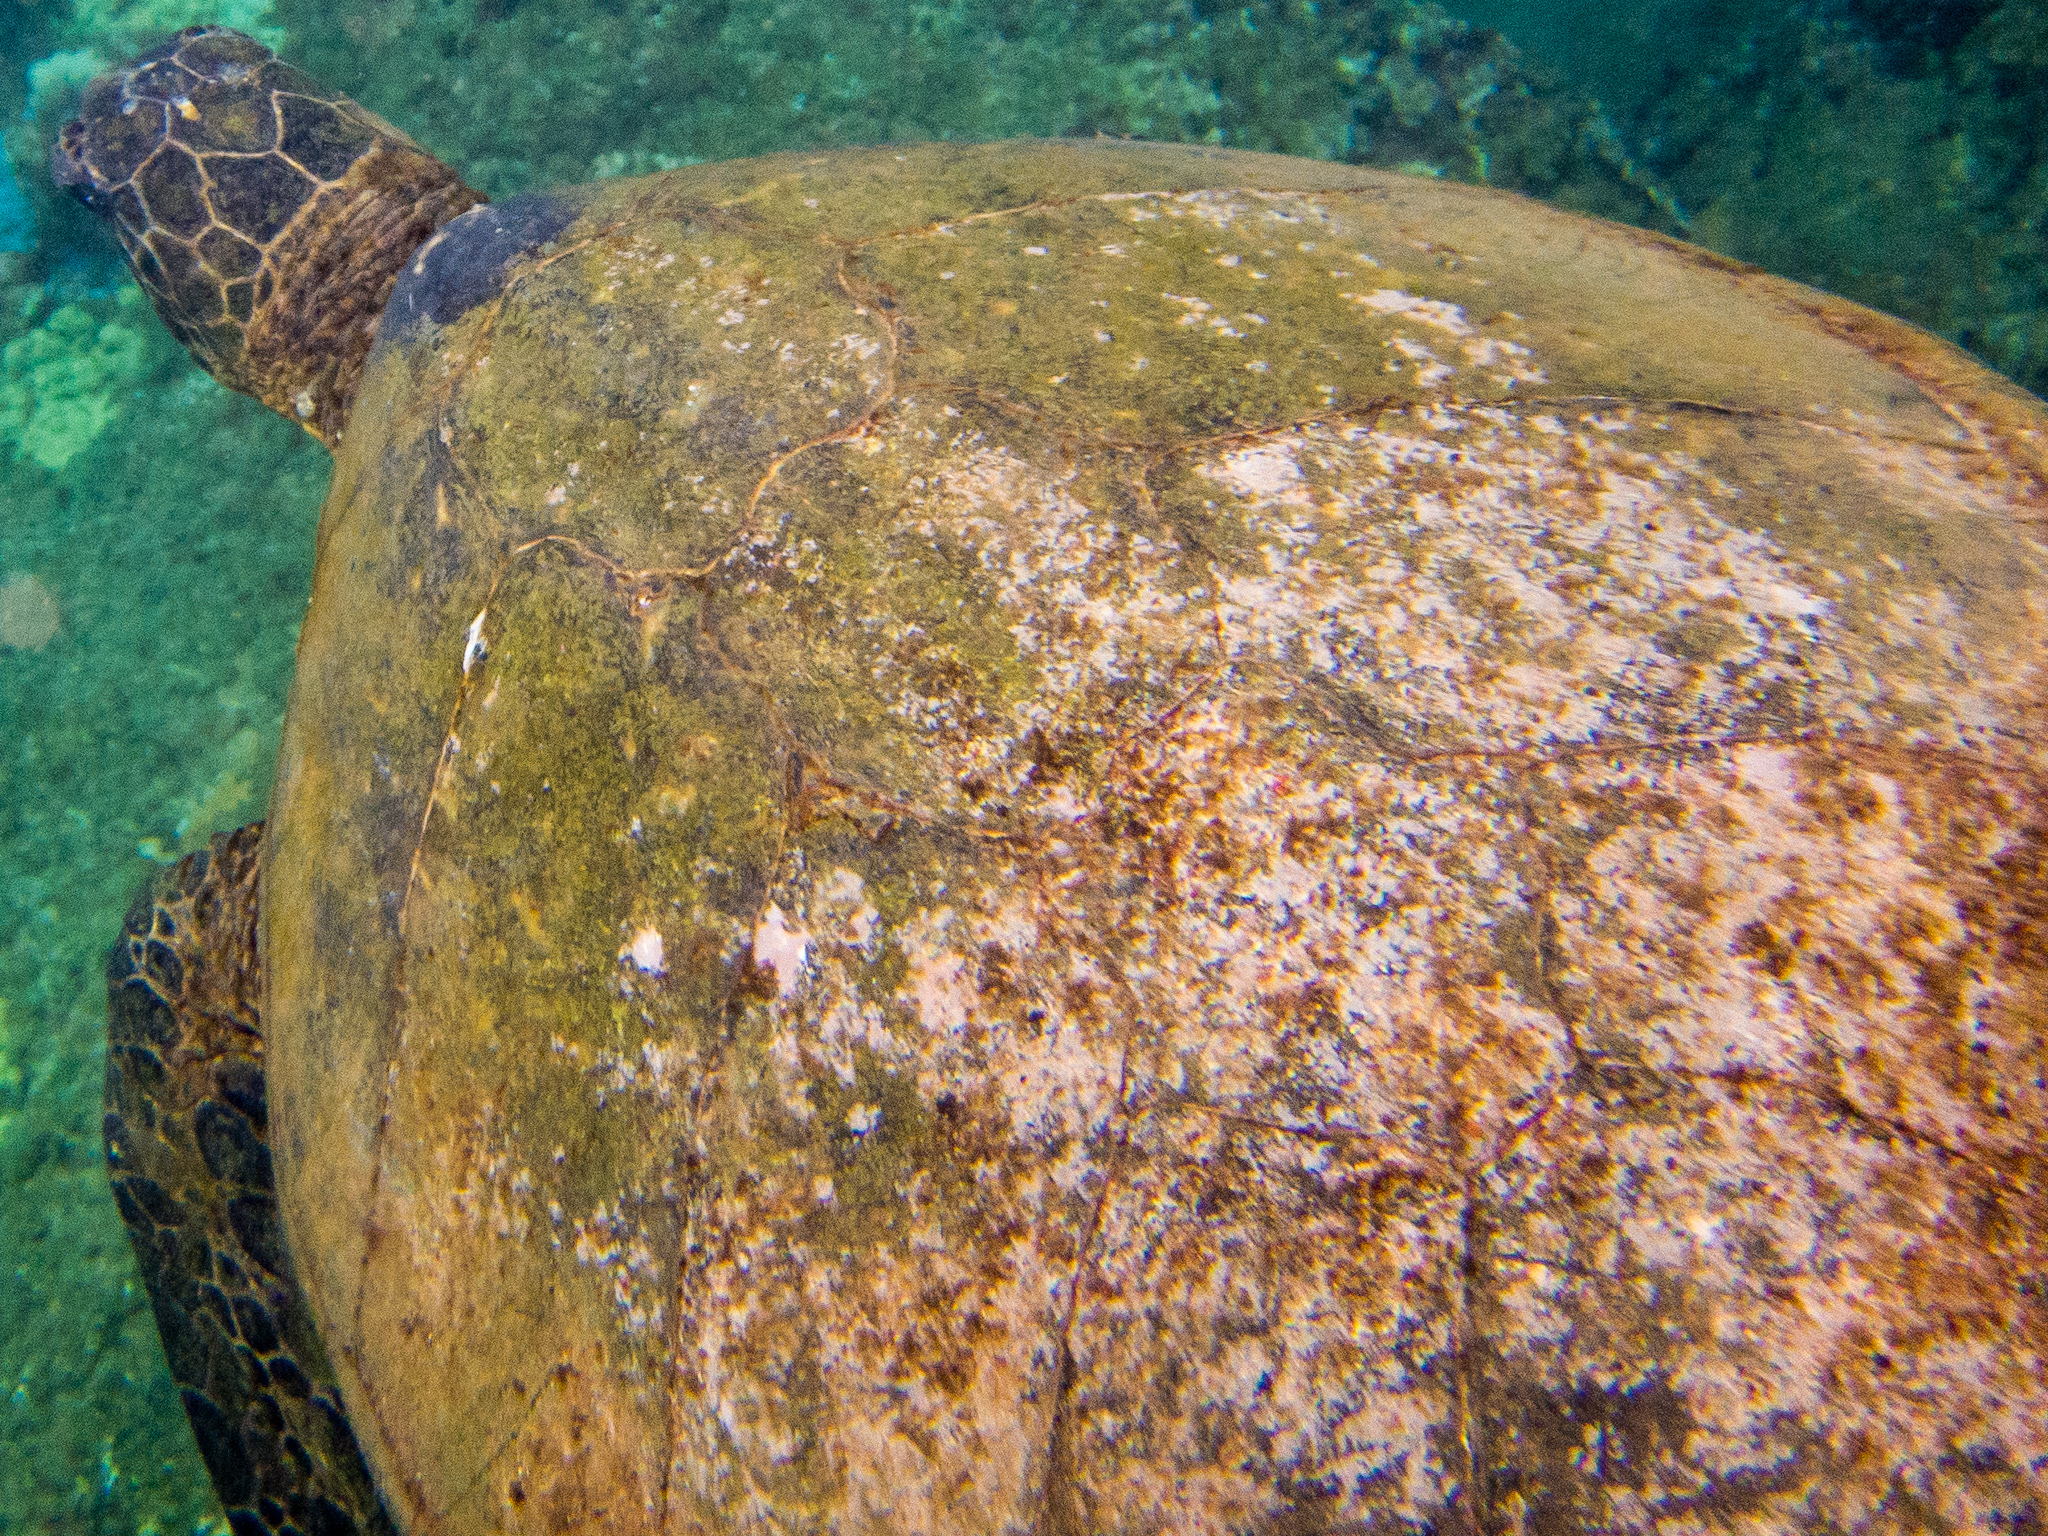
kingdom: Animalia
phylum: Chordata
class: Testudines
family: Cheloniidae
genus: Chelonia
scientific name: Chelonia mydas
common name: Green turtle
